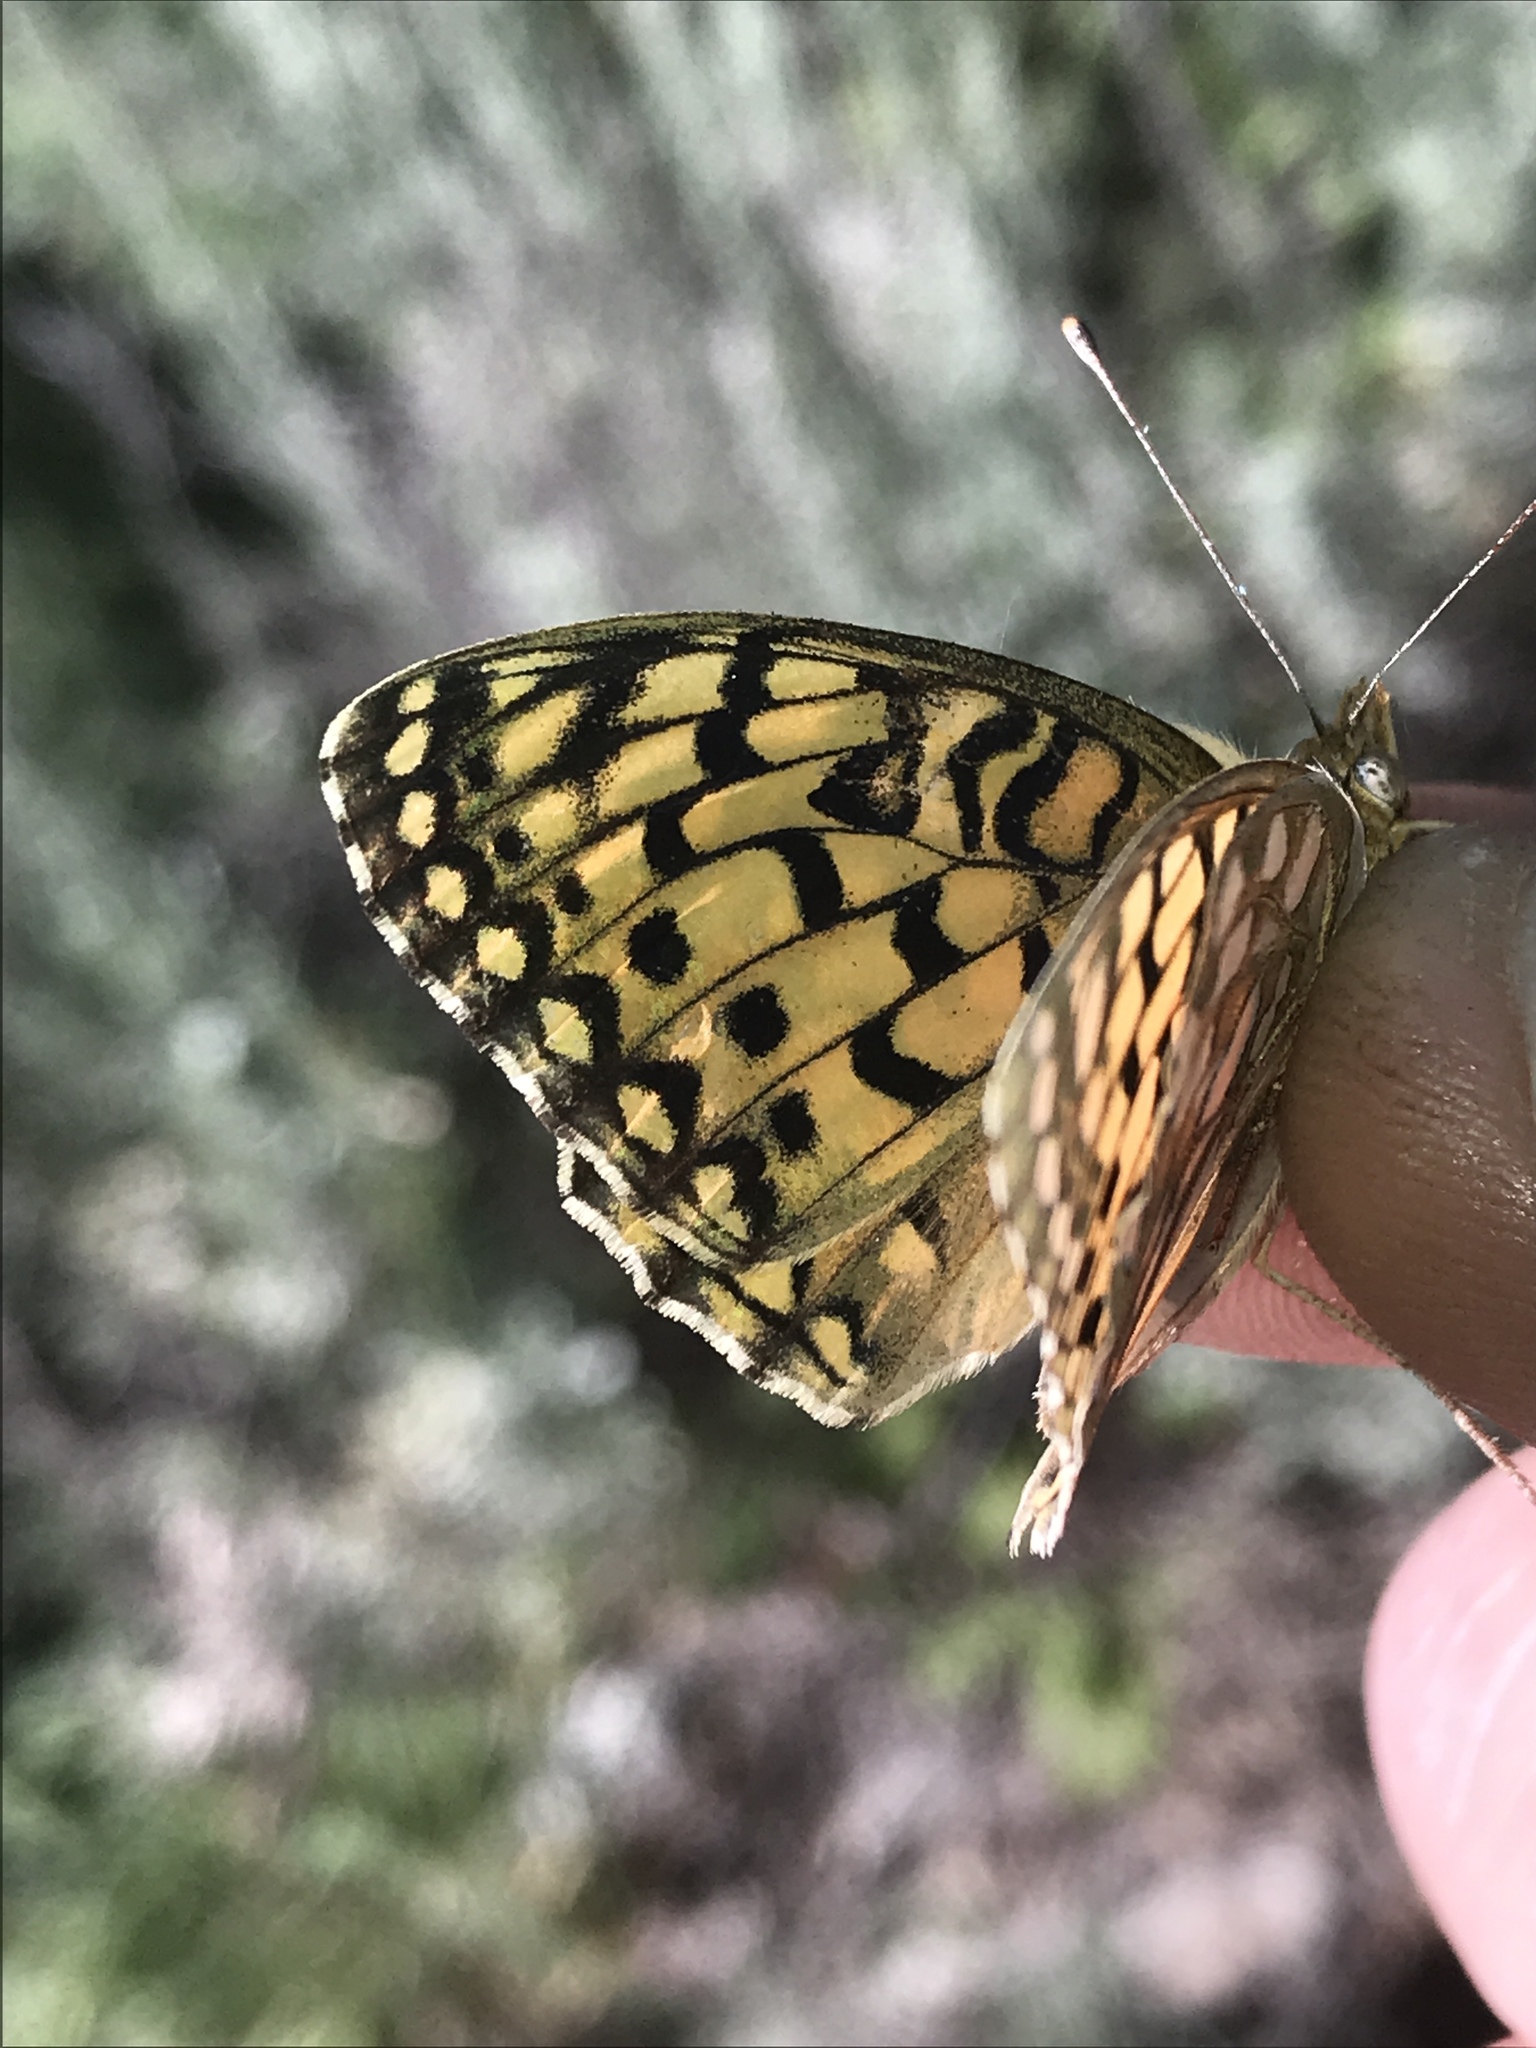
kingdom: Animalia
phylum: Arthropoda
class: Insecta
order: Lepidoptera
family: Nymphalidae
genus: Speyeria
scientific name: Speyeria callippe
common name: Callippe fritillary
